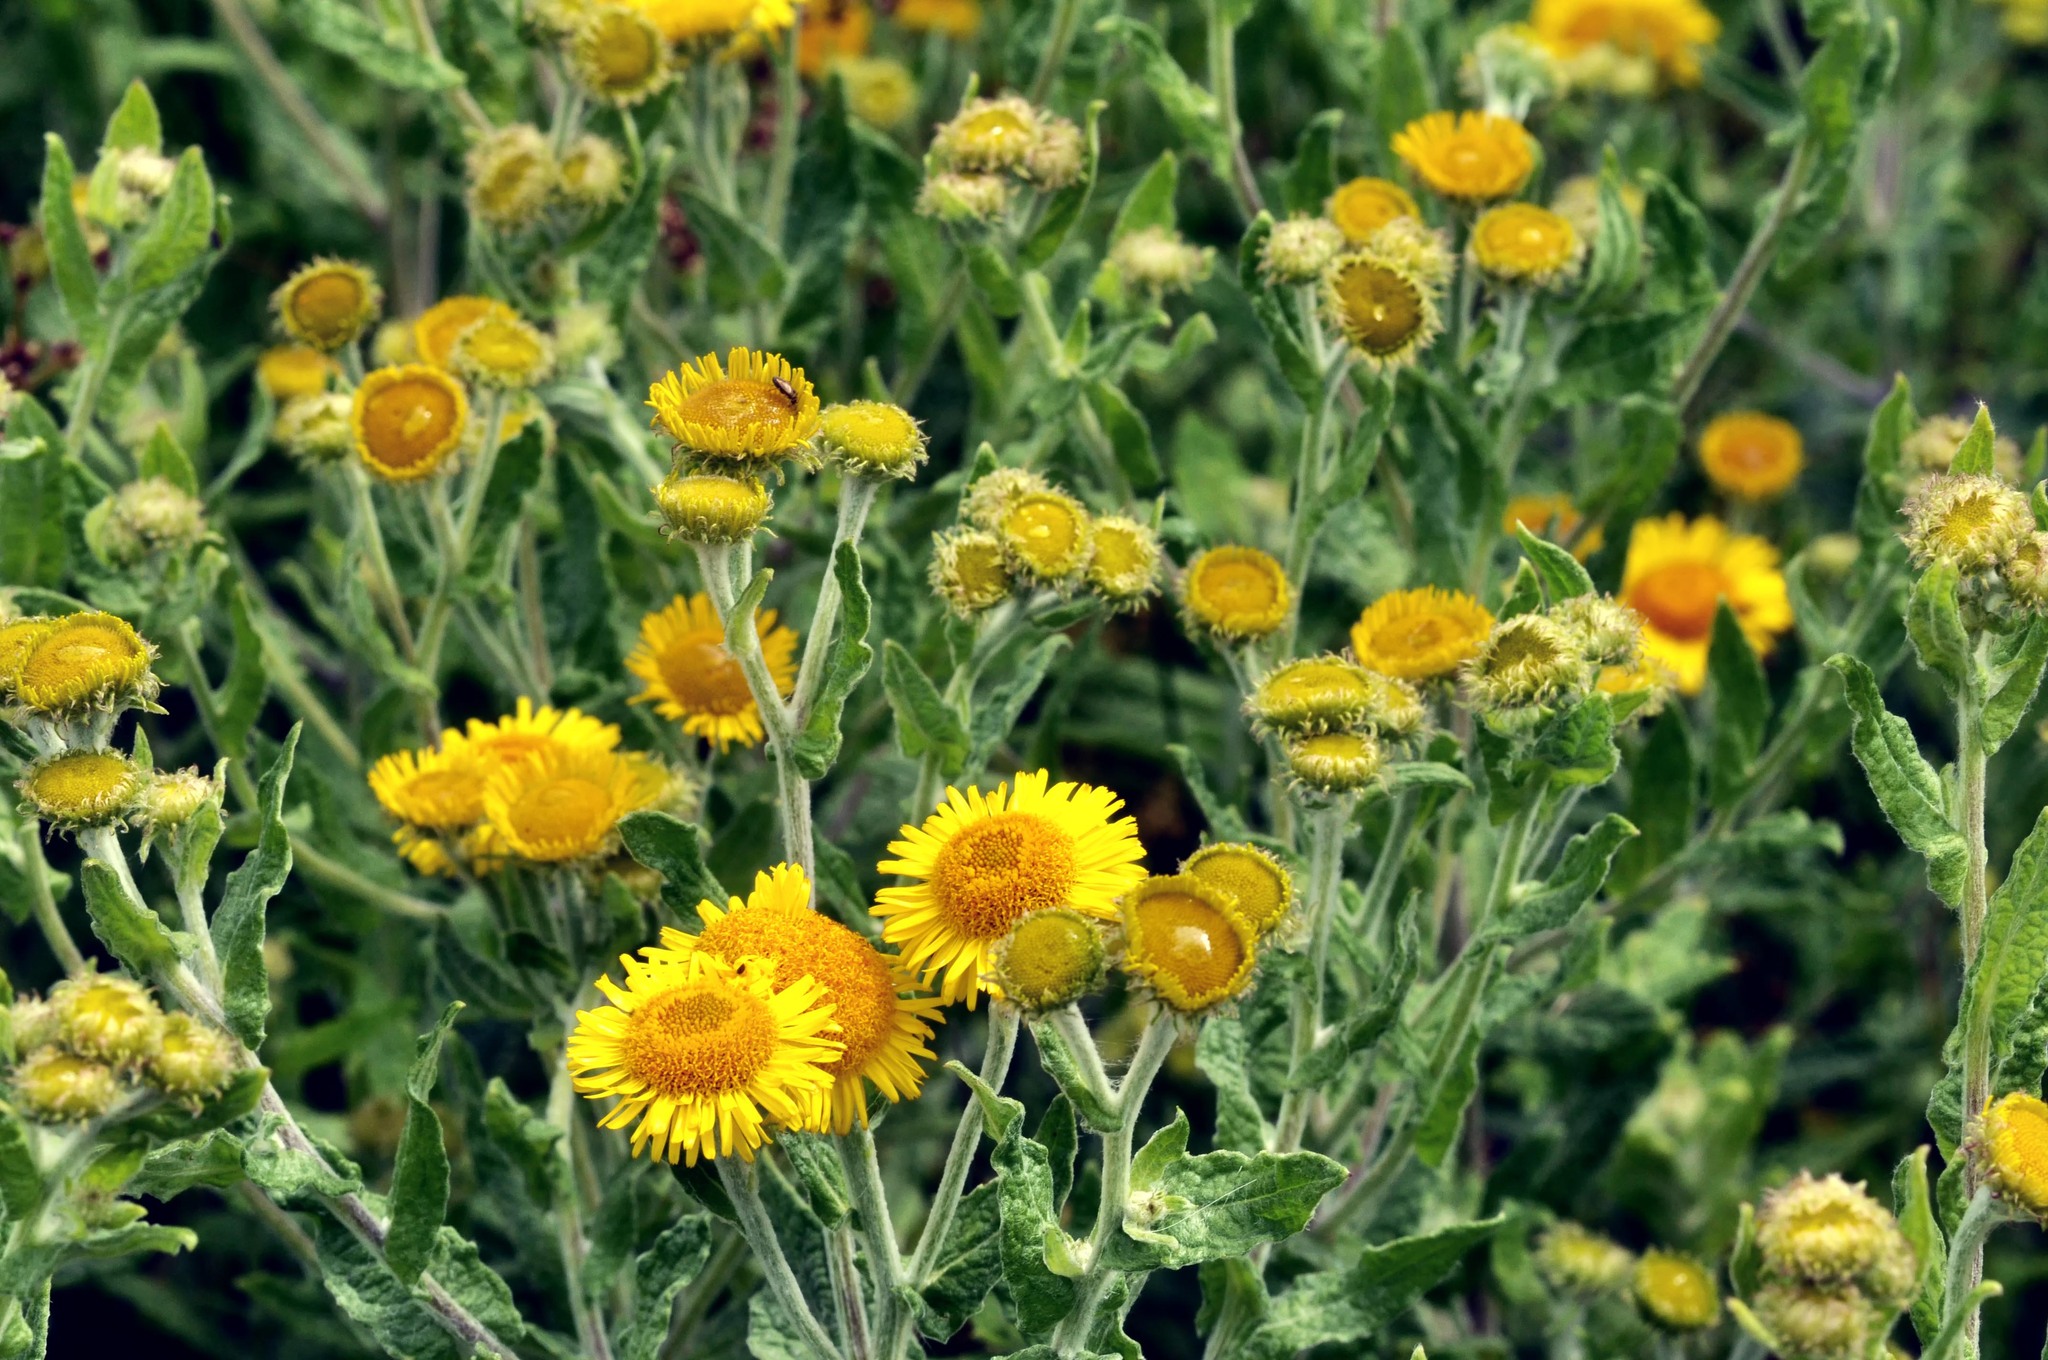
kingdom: Plantae
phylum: Tracheophyta
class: Magnoliopsida
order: Asterales
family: Asteraceae
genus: Pulicaria
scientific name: Pulicaria dysenterica
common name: Common fleabane
